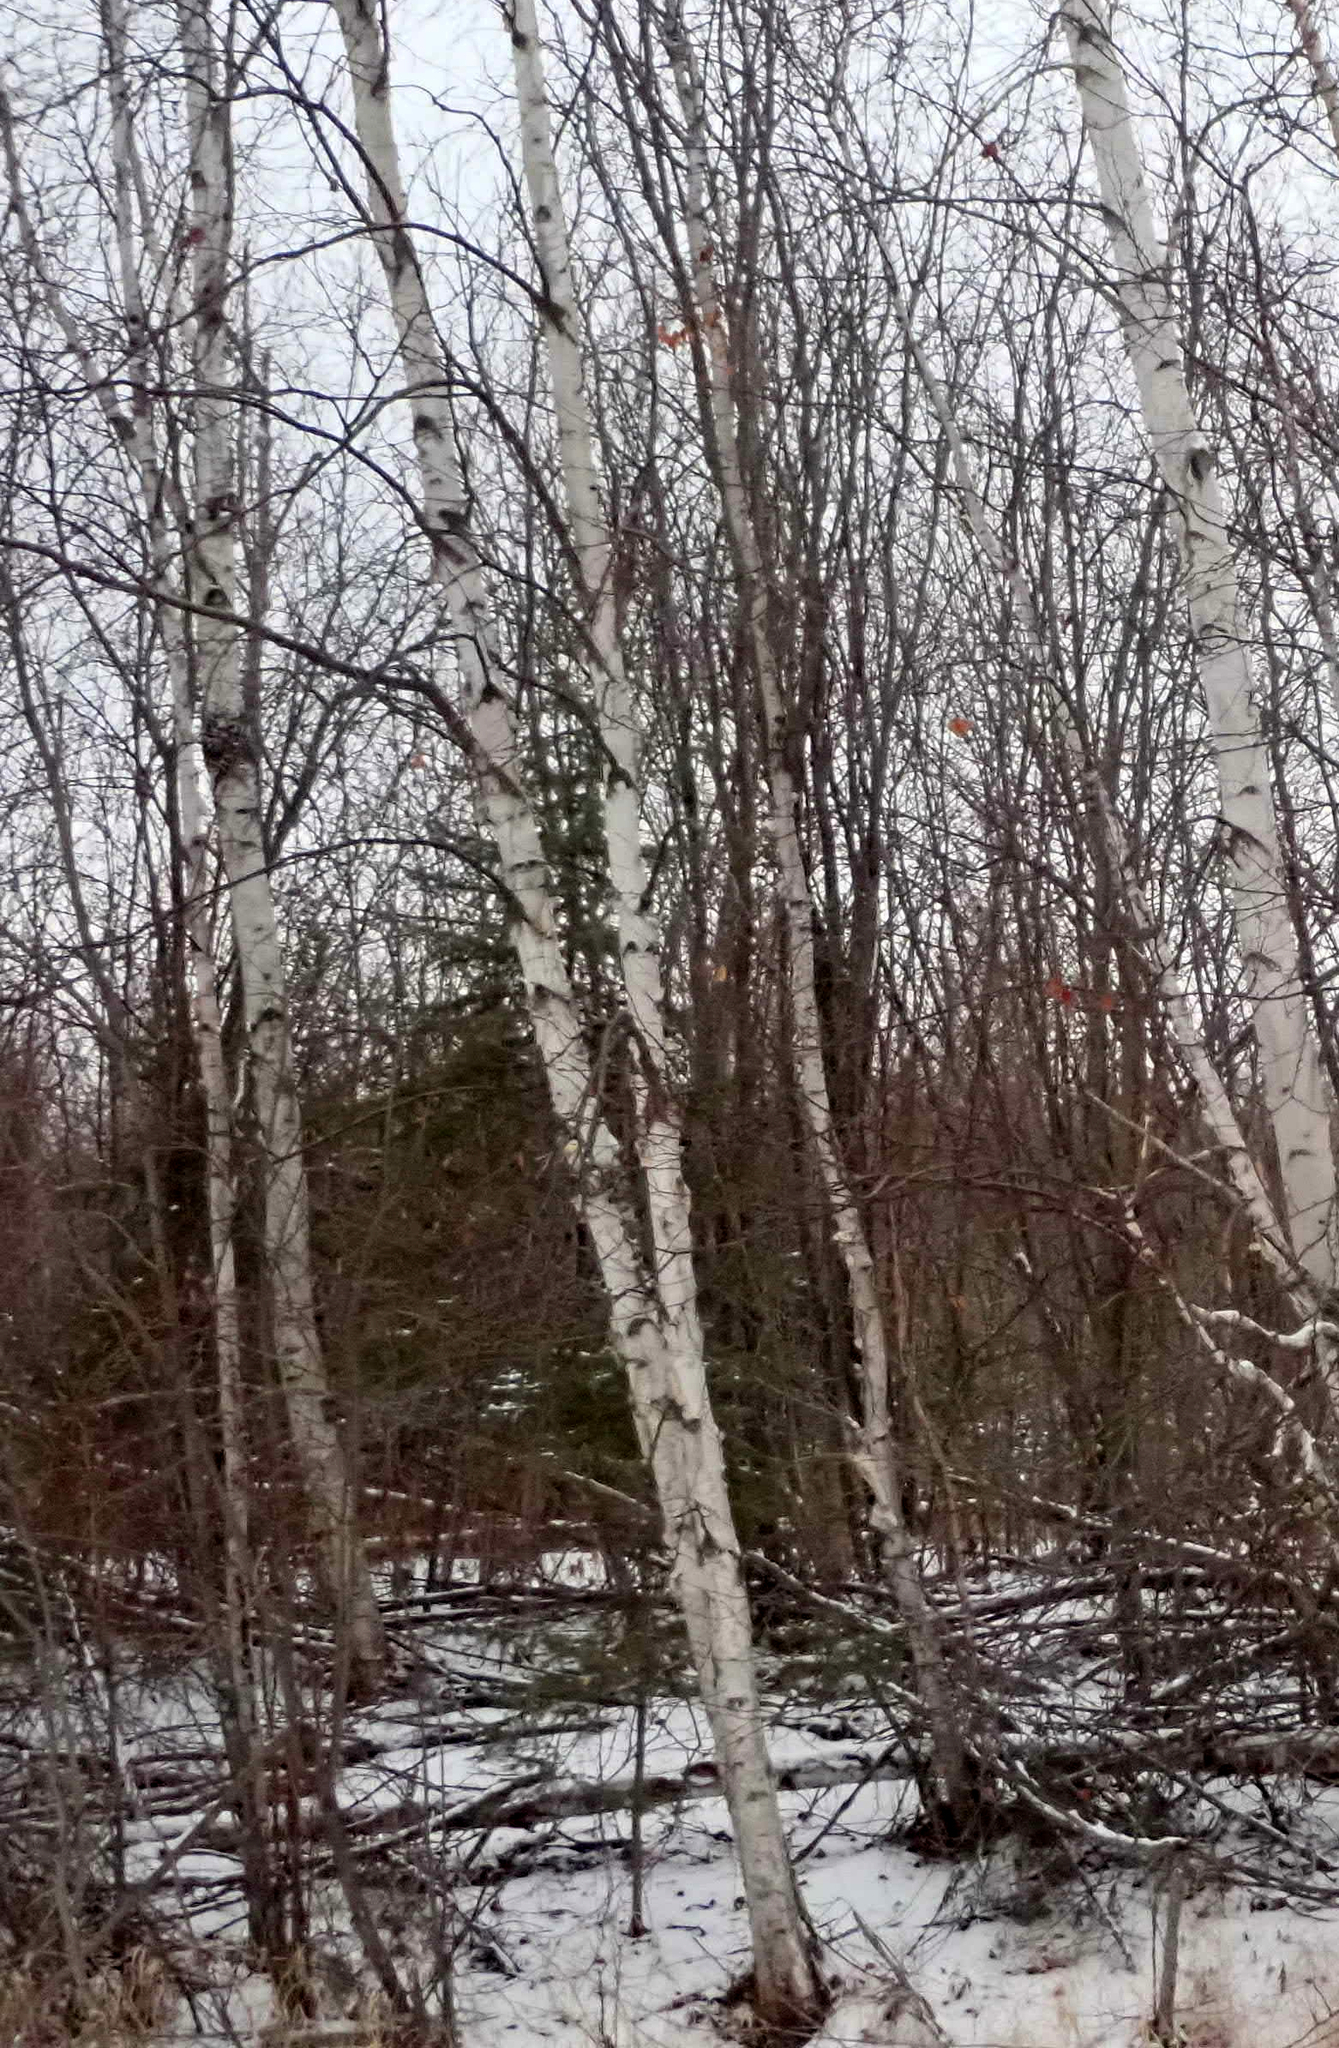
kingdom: Plantae
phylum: Tracheophyta
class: Magnoliopsida
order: Fagales
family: Betulaceae
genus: Betula
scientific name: Betula papyrifera
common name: Paper birch
